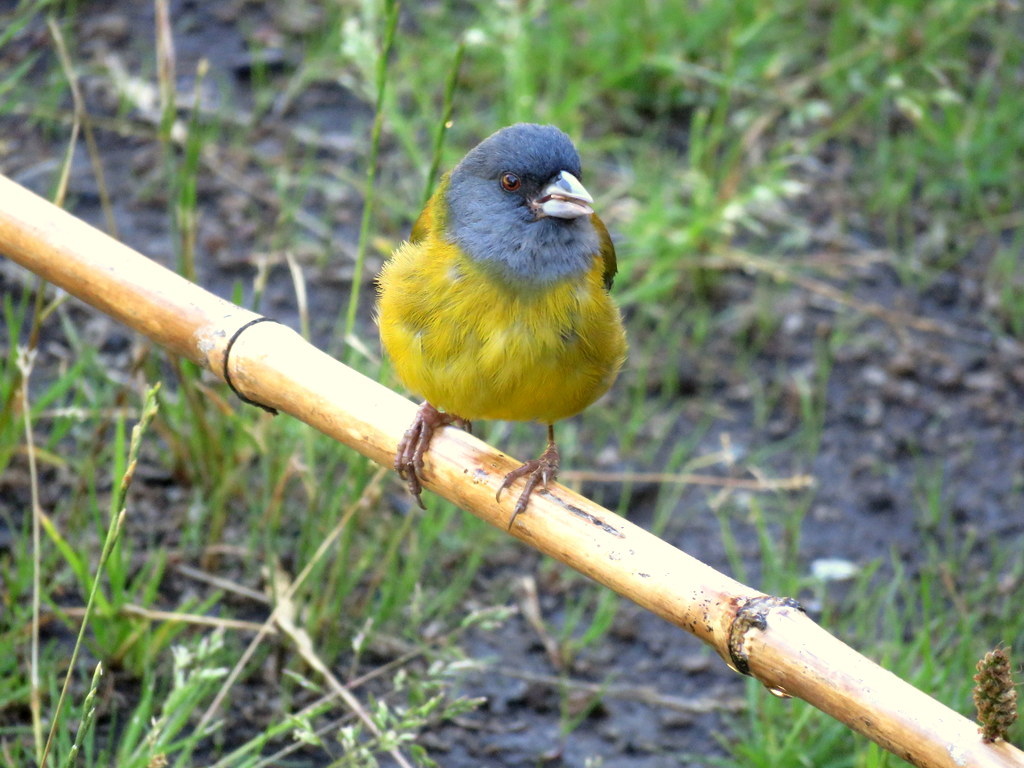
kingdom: Animalia
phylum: Chordata
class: Aves
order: Passeriformes
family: Thraupidae
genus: Phrygilus
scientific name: Phrygilus patagonicus
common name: Patagonian sierra finch
